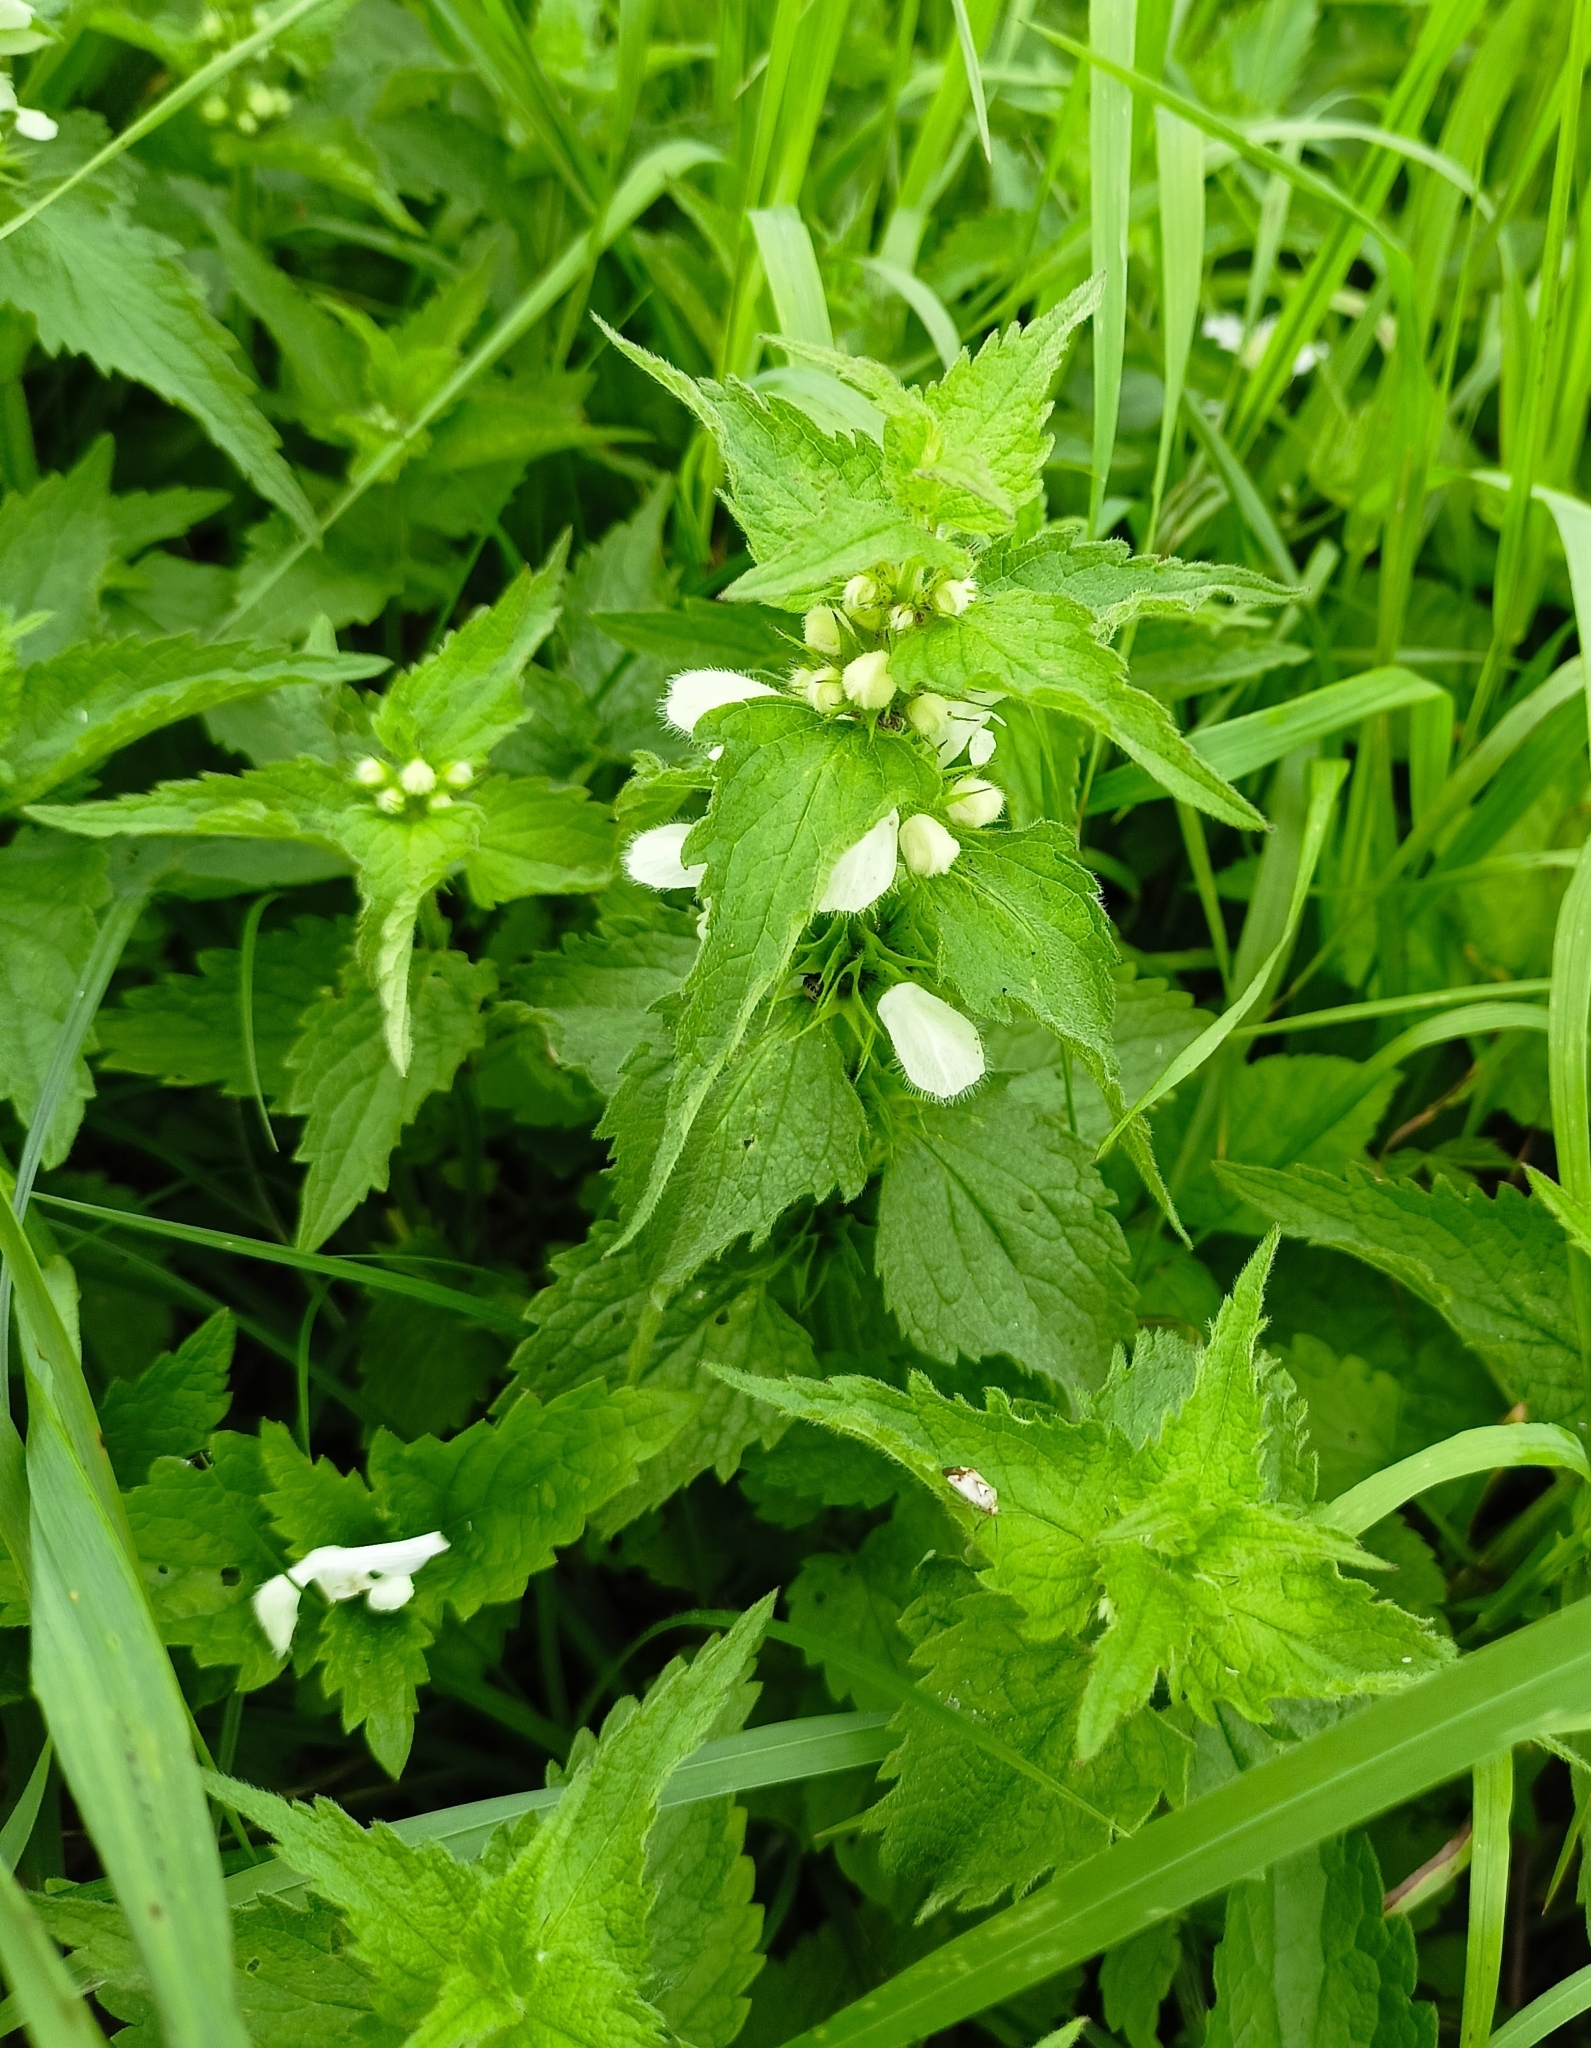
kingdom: Plantae
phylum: Tracheophyta
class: Magnoliopsida
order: Lamiales
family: Lamiaceae
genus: Lamium
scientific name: Lamium album
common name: White dead-nettle
